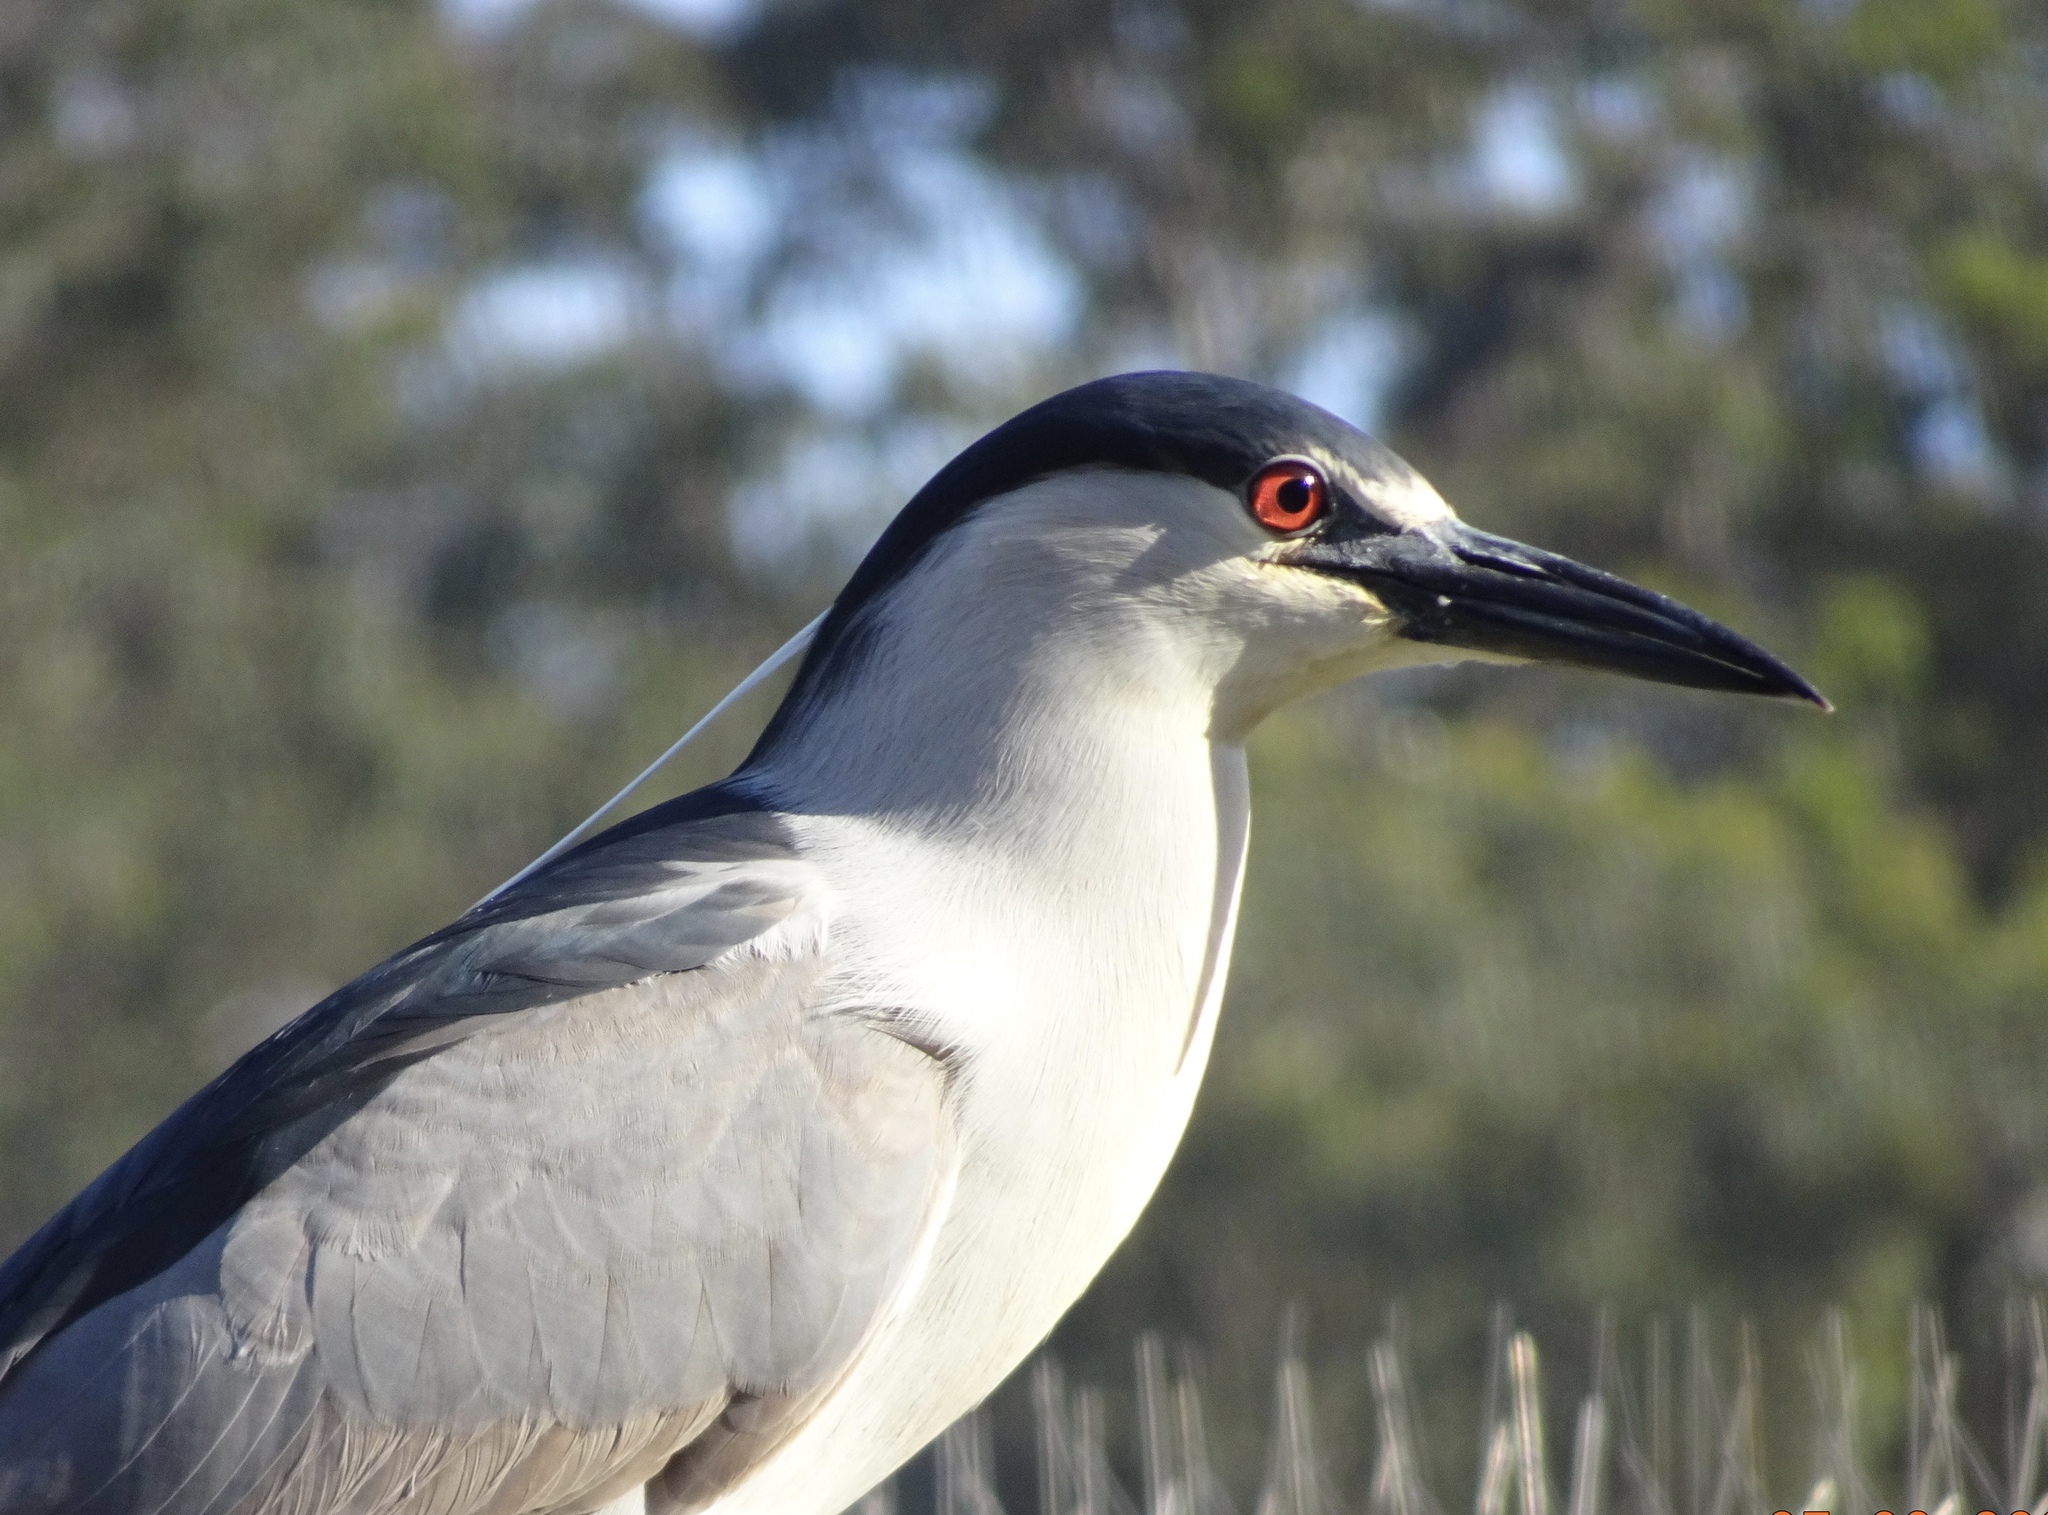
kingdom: Animalia
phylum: Chordata
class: Aves
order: Pelecaniformes
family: Ardeidae
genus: Nycticorax
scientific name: Nycticorax nycticorax
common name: Black-crowned night heron
